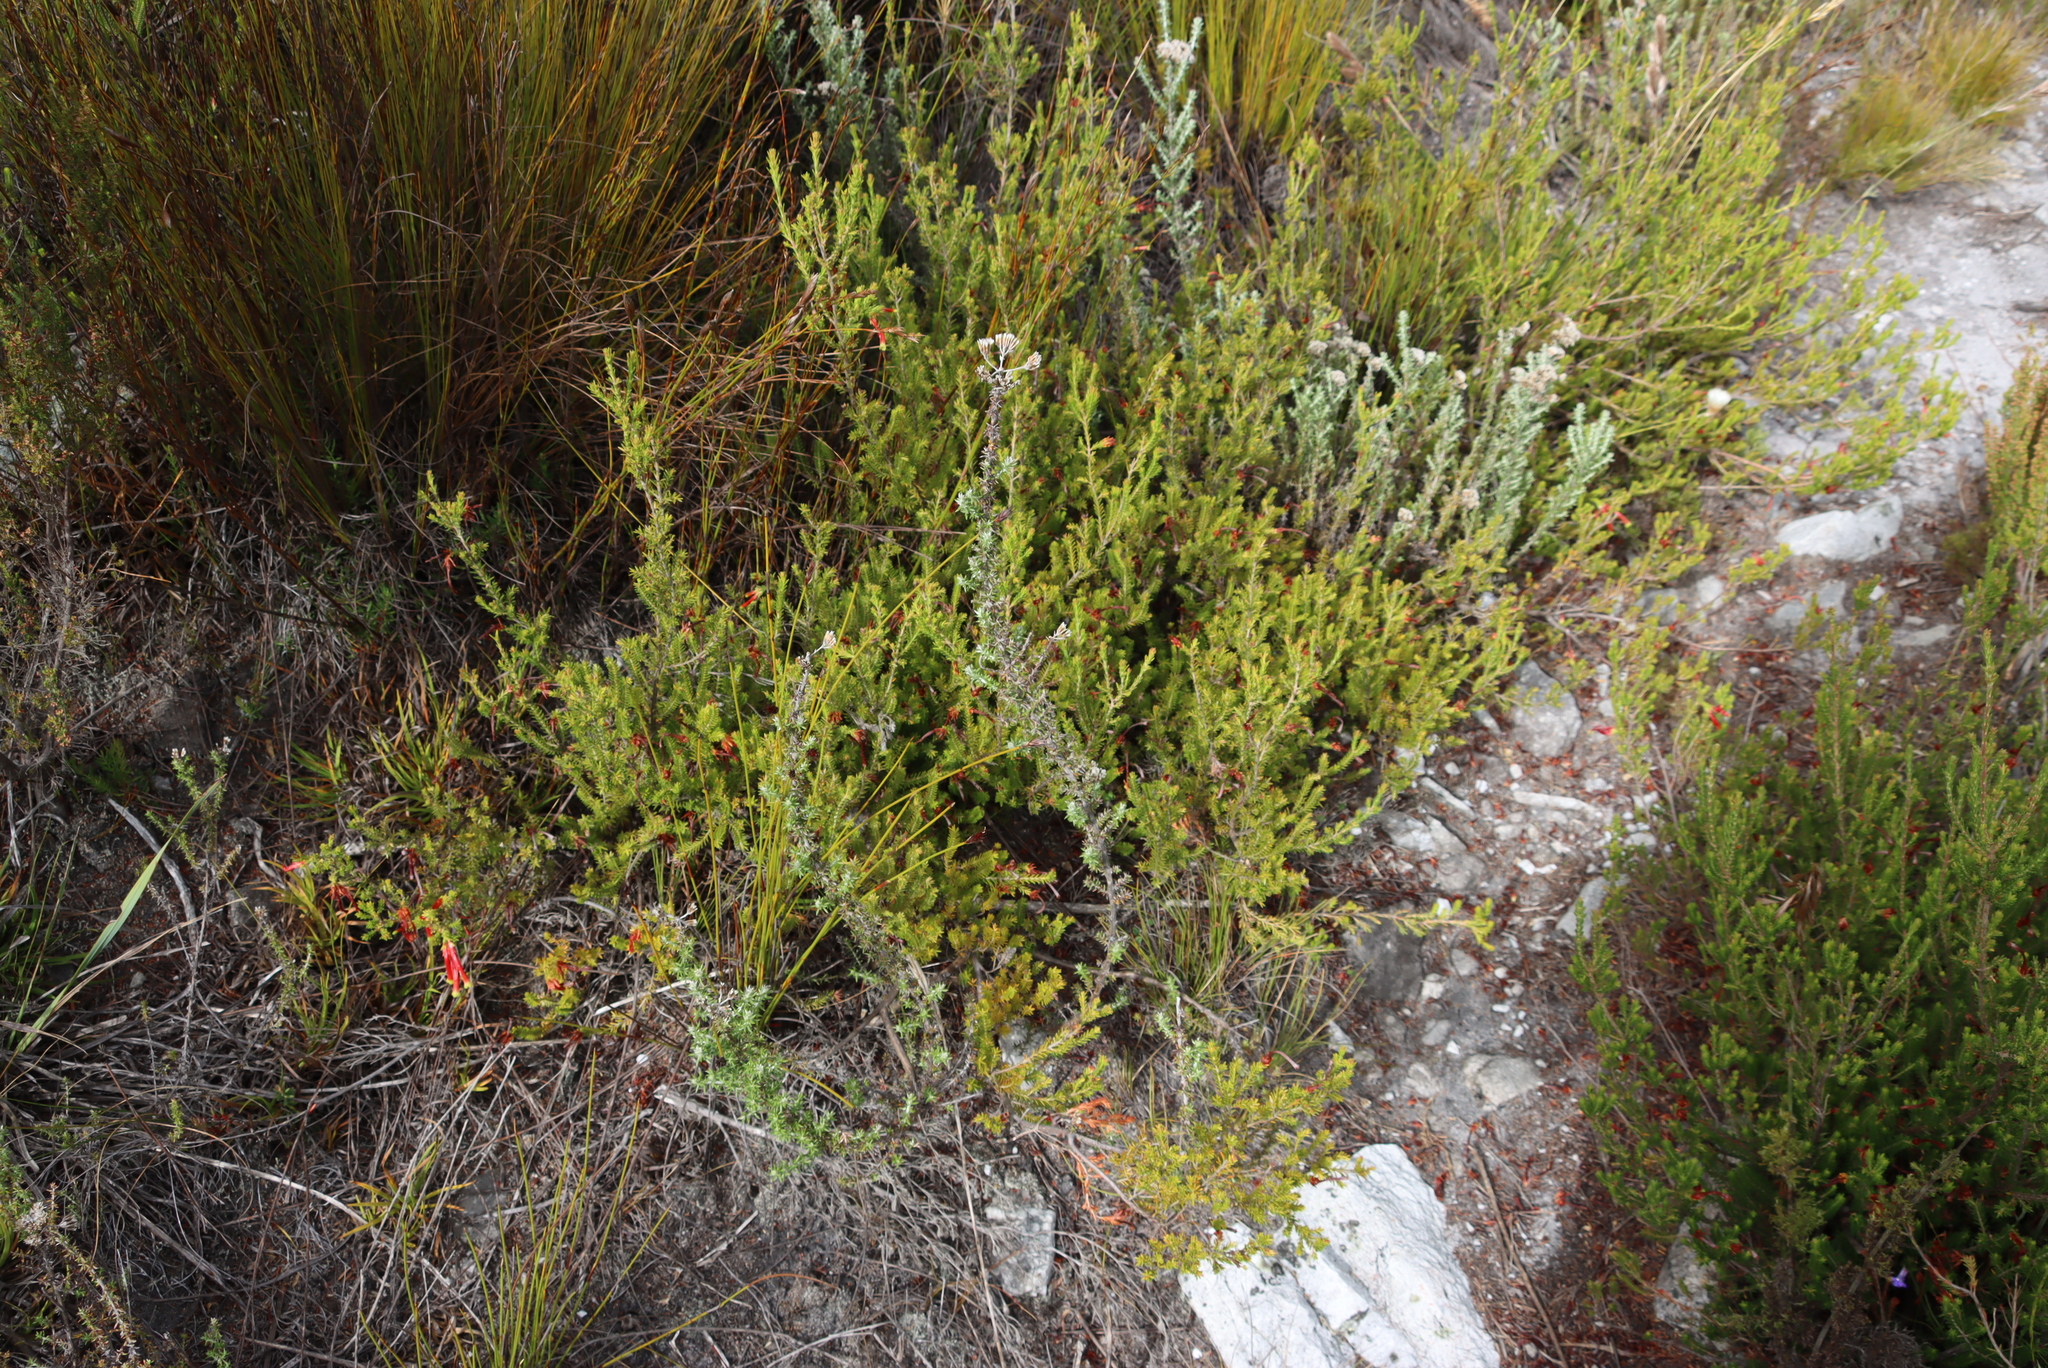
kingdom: Plantae
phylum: Tracheophyta
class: Magnoliopsida
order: Ericales
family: Ericaceae
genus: Erica
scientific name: Erica discolor
